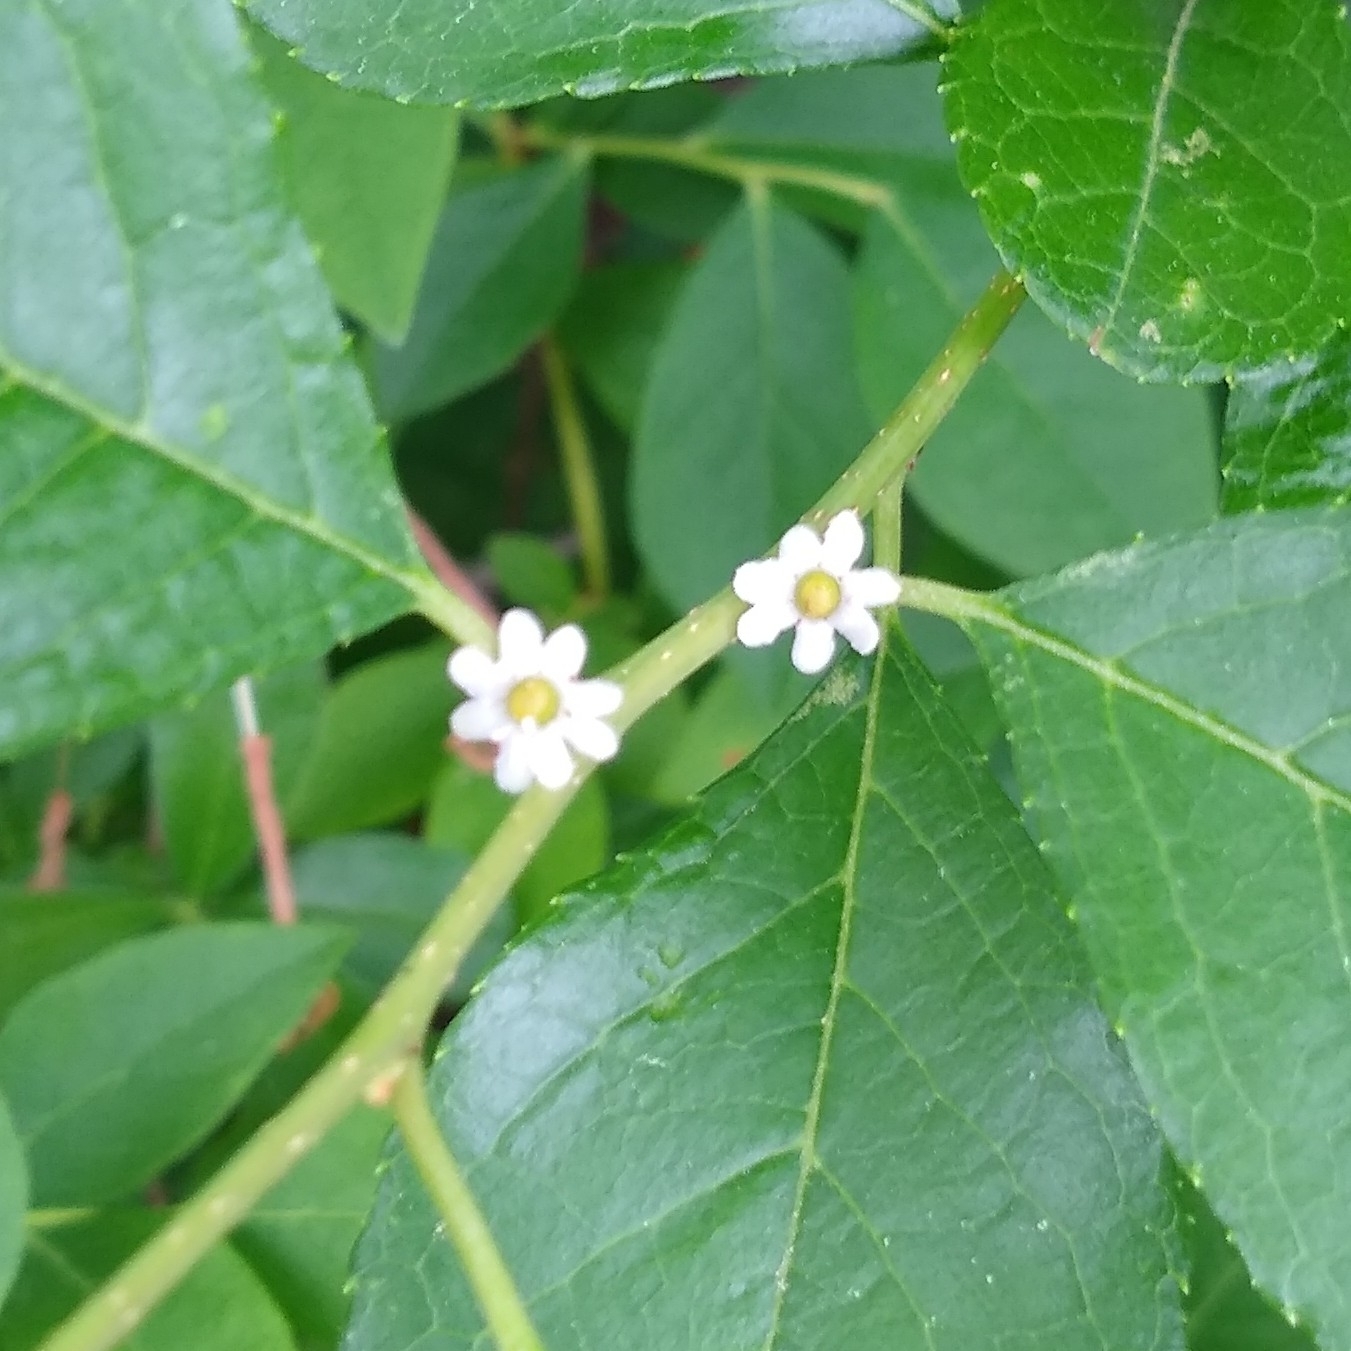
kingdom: Plantae
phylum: Tracheophyta
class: Magnoliopsida
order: Aquifoliales
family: Aquifoliaceae
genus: Ilex
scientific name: Ilex verticillata
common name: Virginia winterberry
